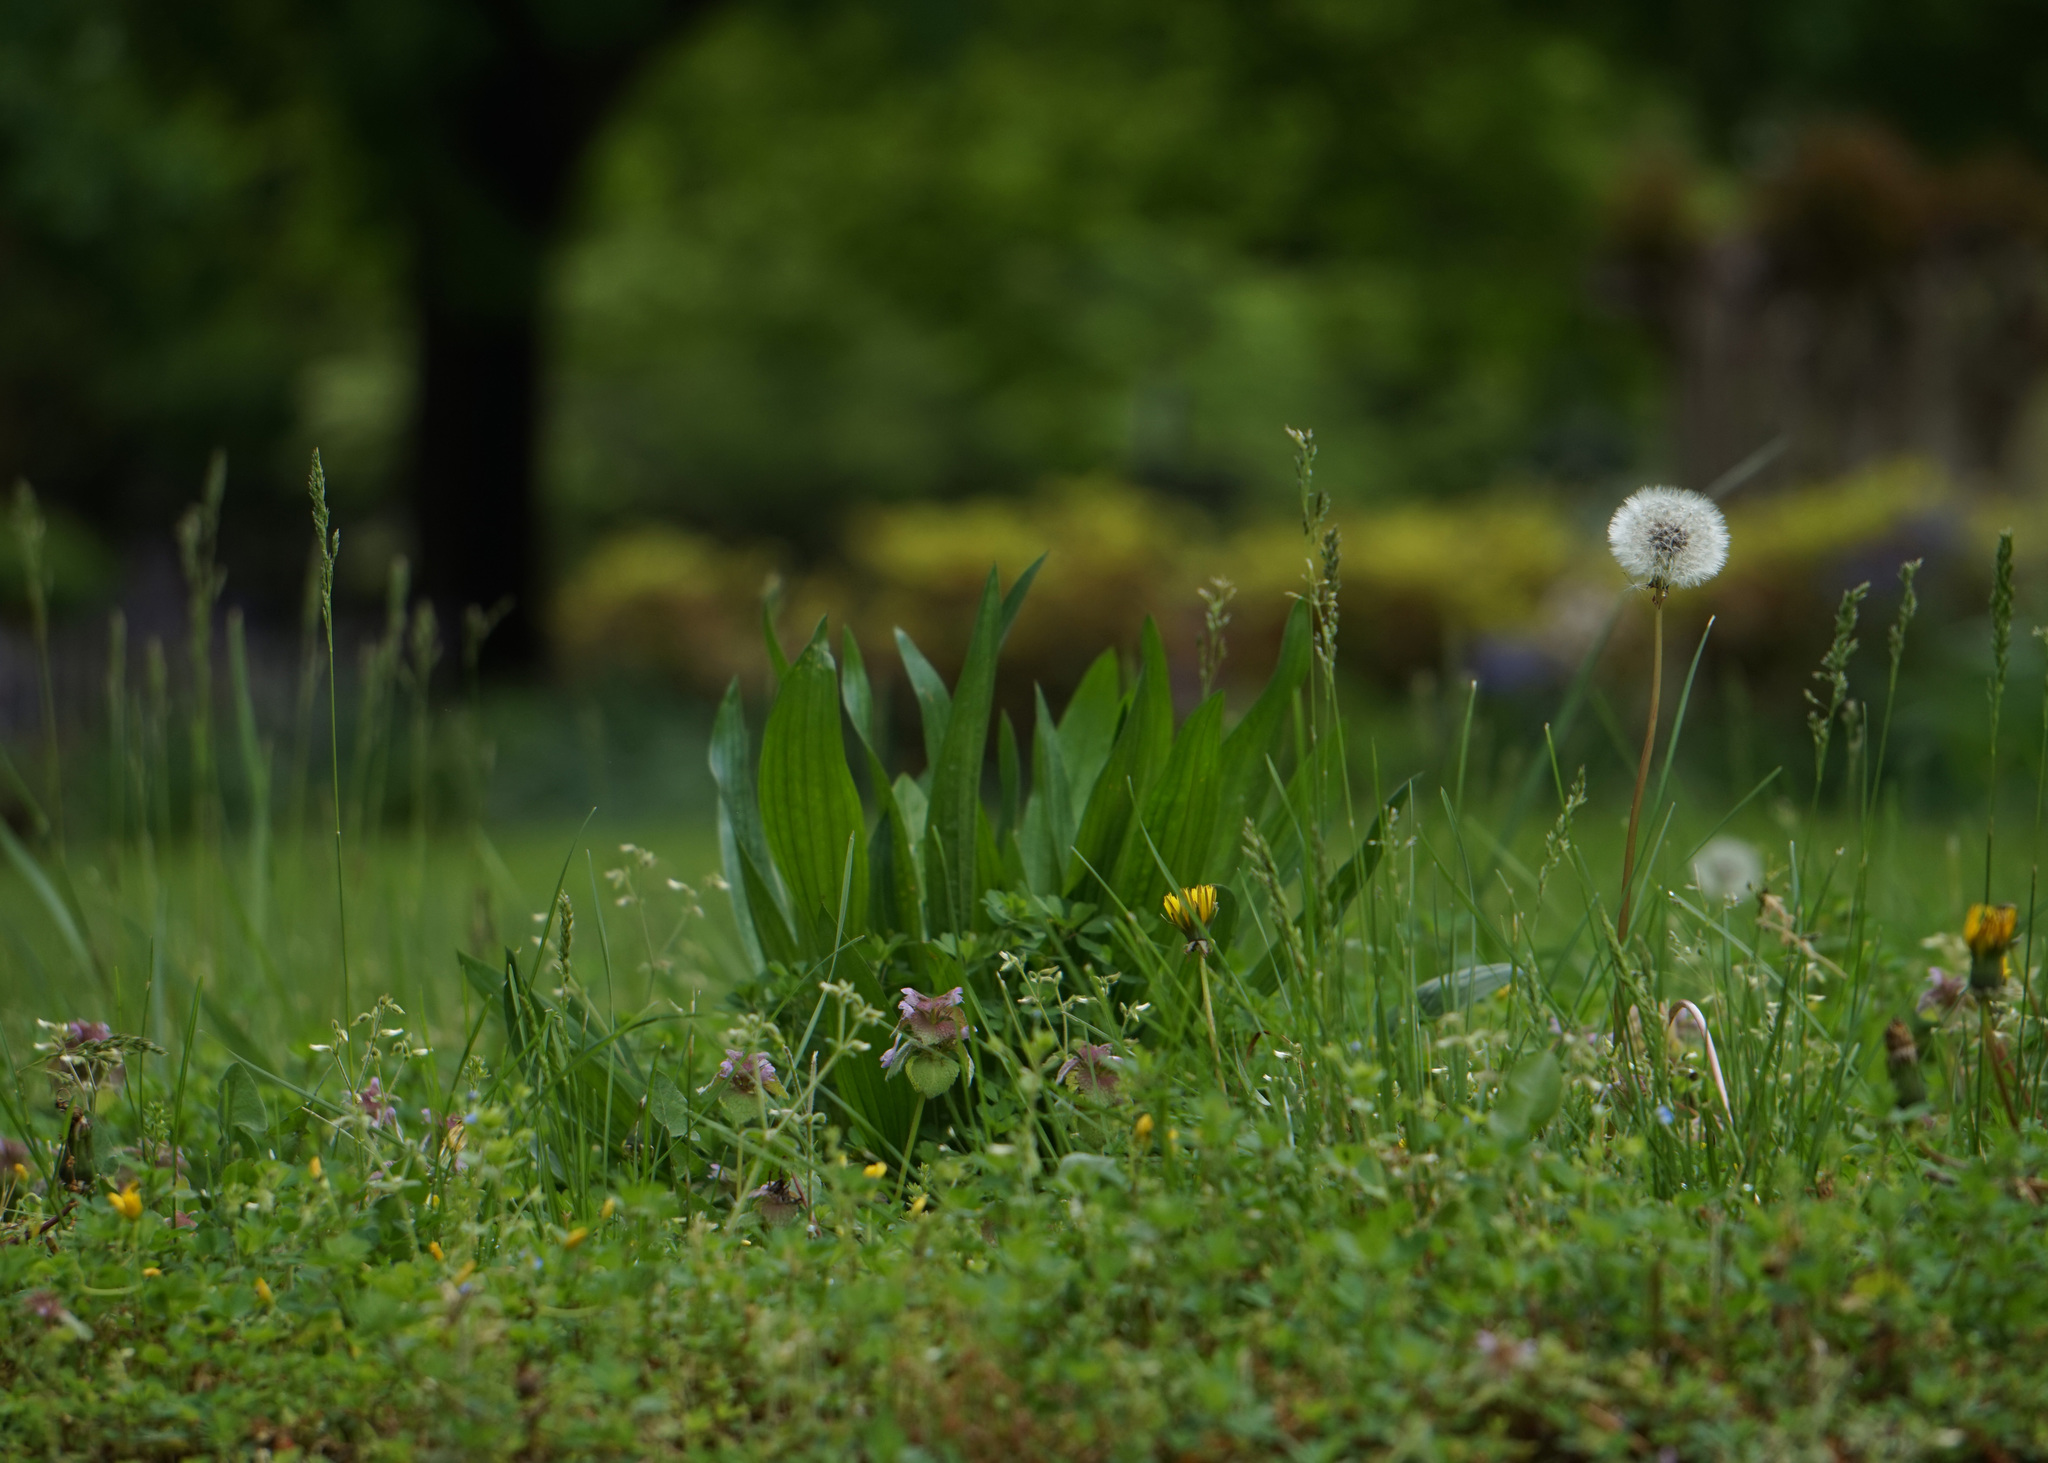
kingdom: Plantae
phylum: Tracheophyta
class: Magnoliopsida
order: Lamiales
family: Plantaginaceae
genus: Plantago
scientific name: Plantago lanceolata
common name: Ribwort plantain
